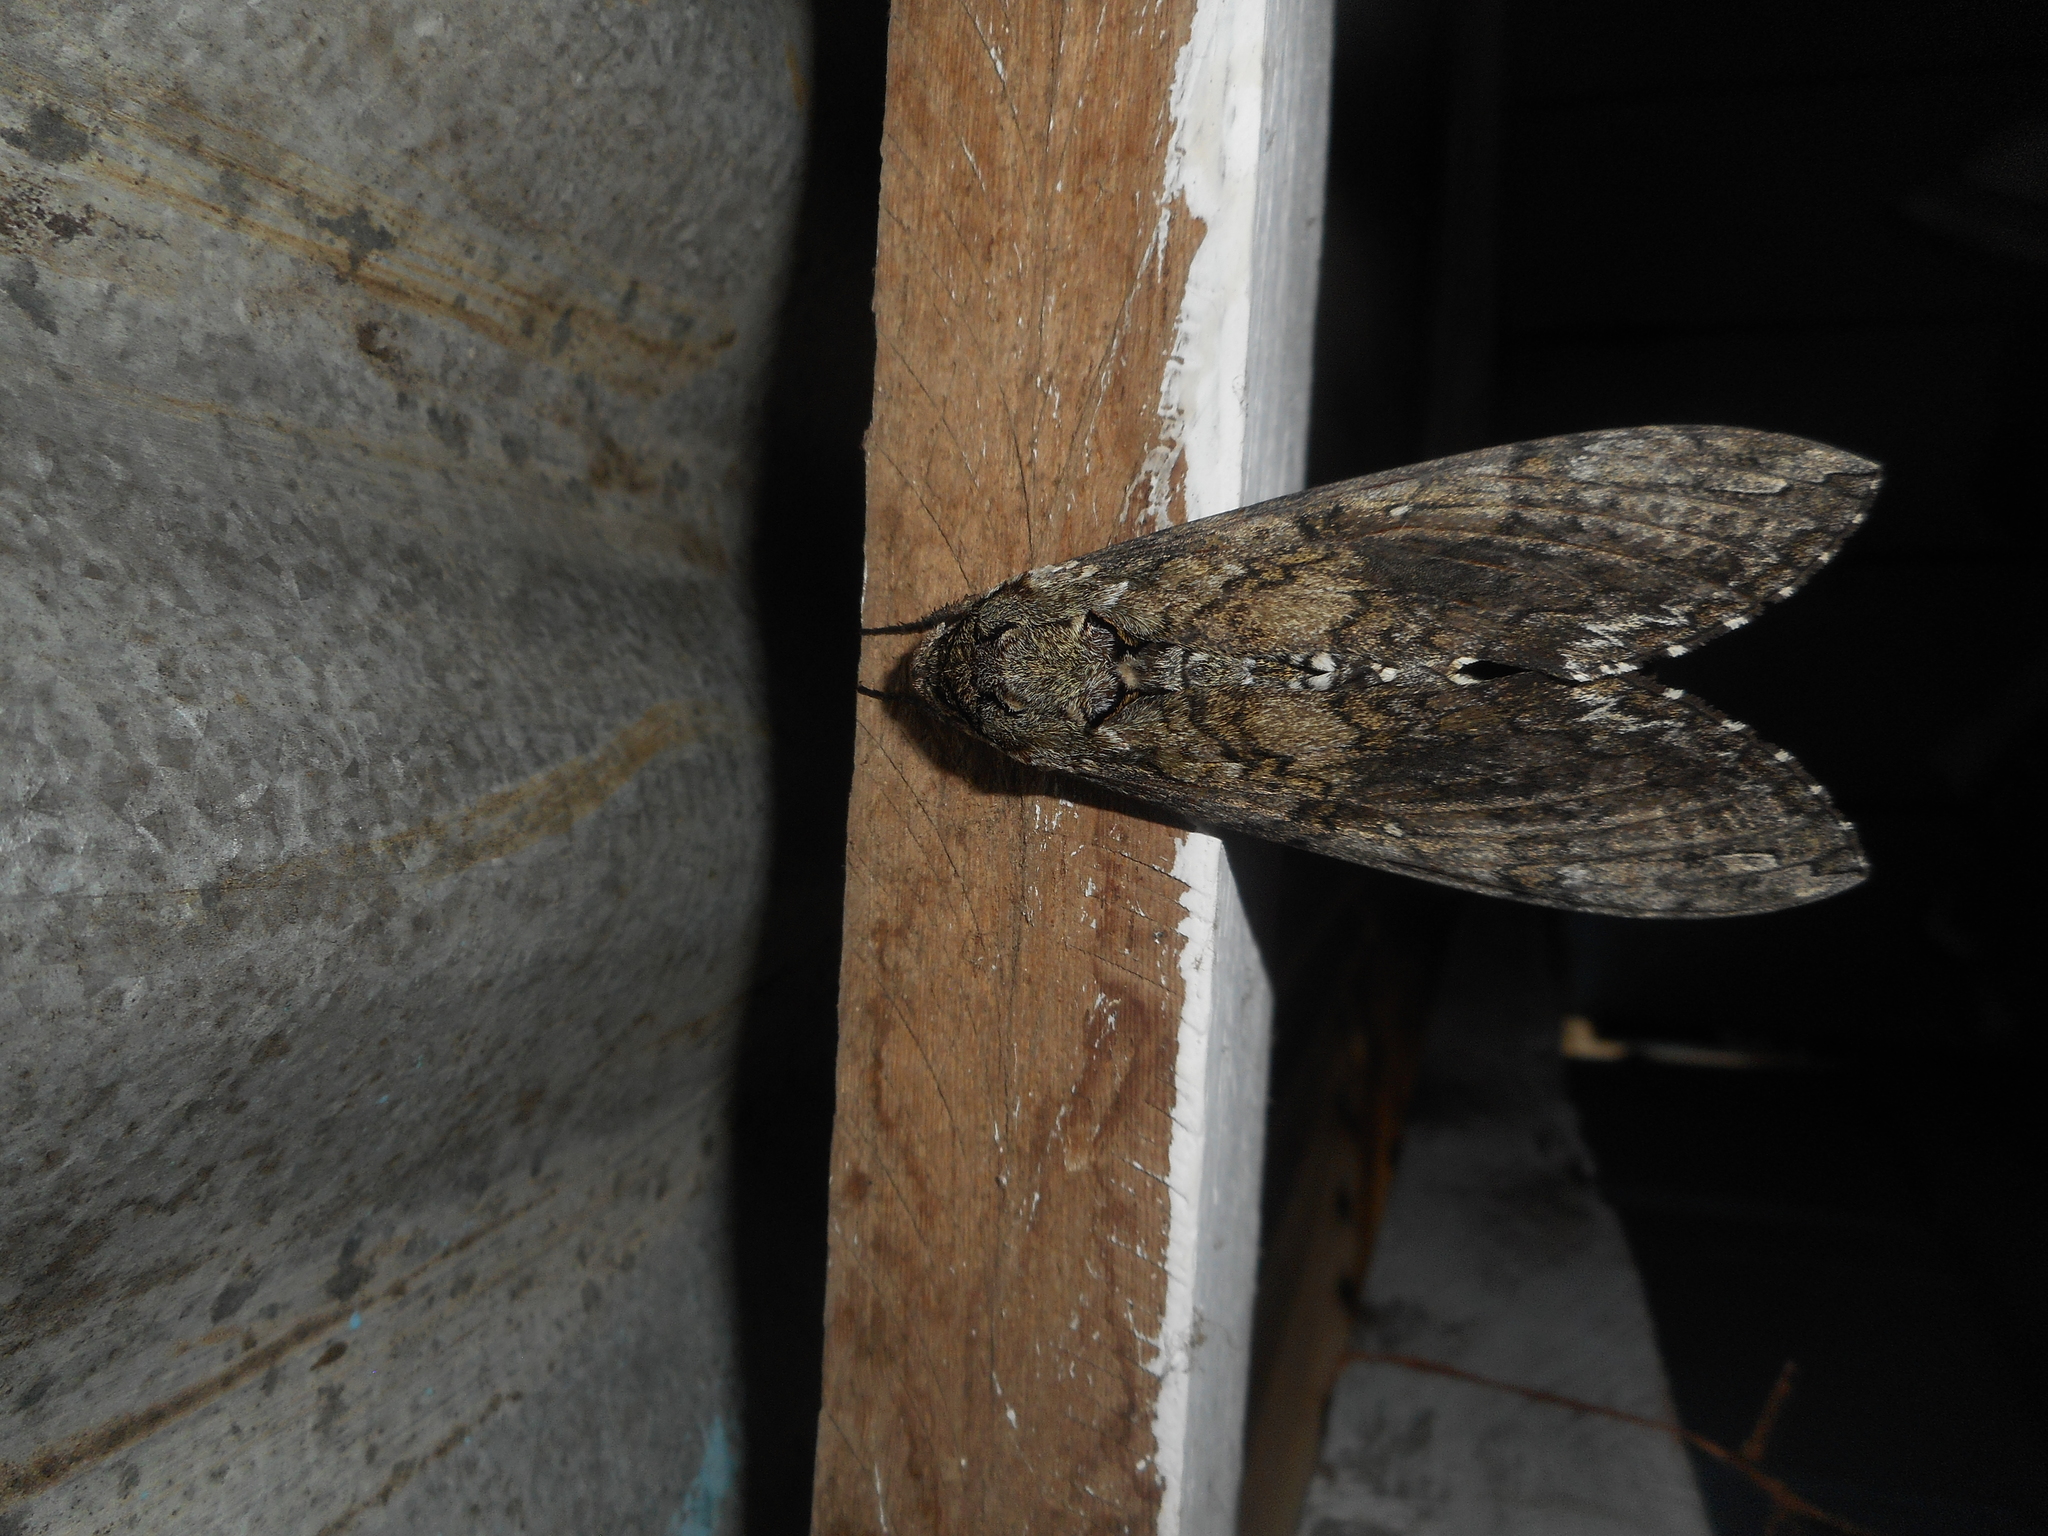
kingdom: Animalia
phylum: Arthropoda
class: Insecta
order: Lepidoptera
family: Sphingidae
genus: Manduca
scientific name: Manduca sexta
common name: Carolina sphinx
